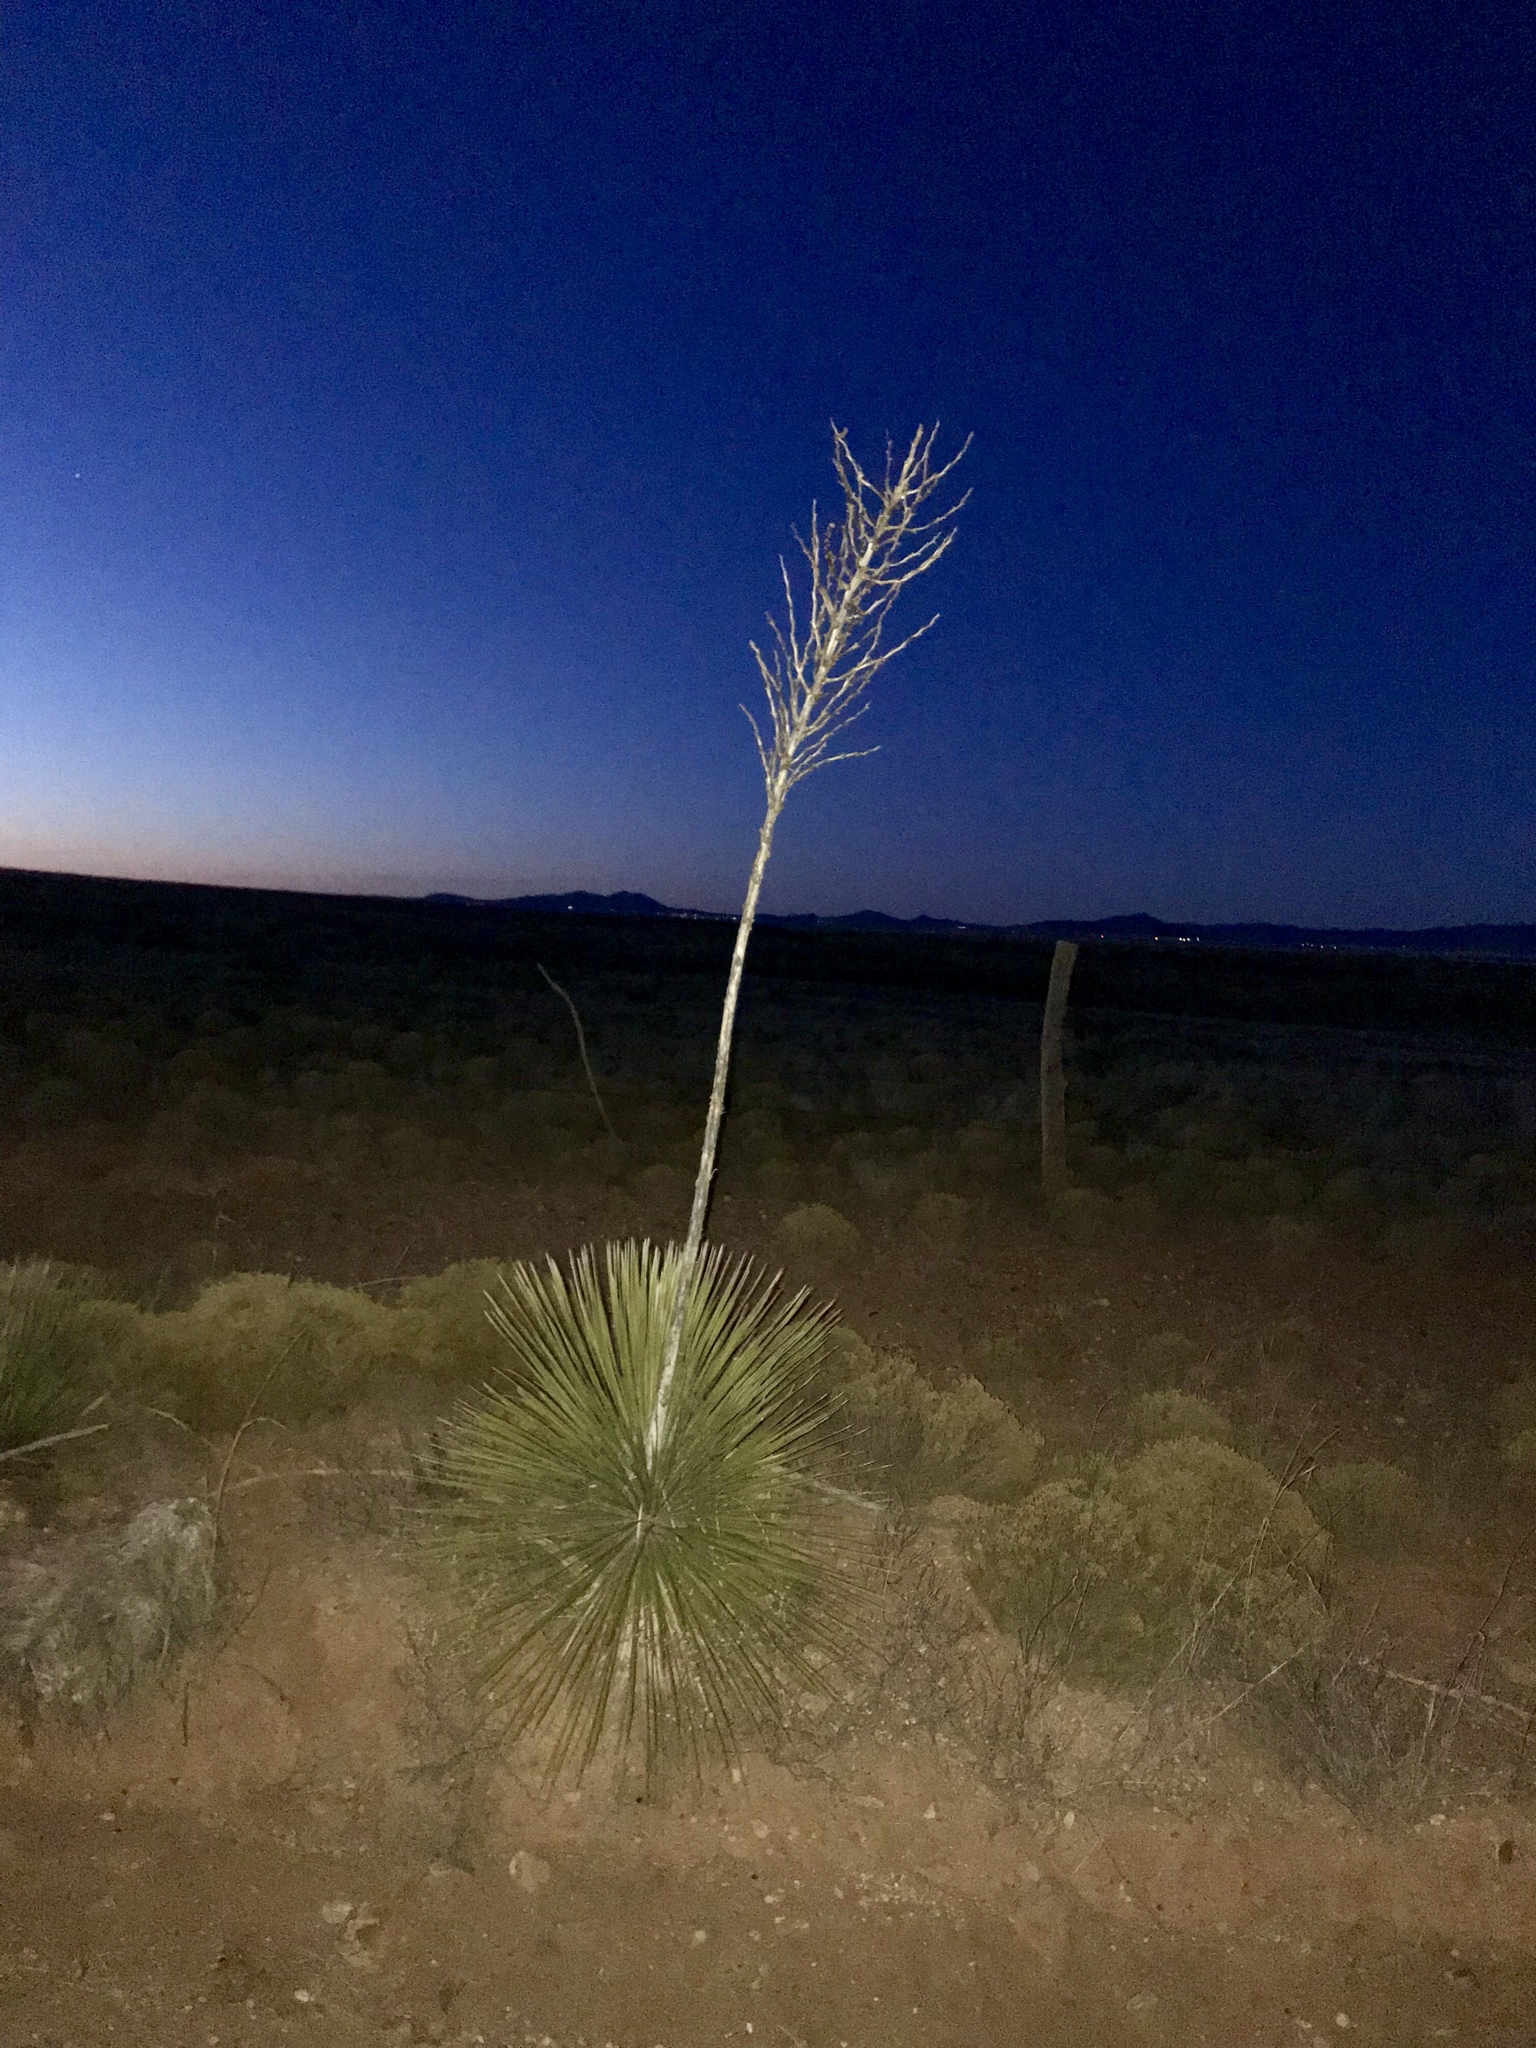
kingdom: Plantae
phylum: Tracheophyta
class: Liliopsida
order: Asparagales
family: Asparagaceae
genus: Yucca
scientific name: Yucca elata
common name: Palmella
